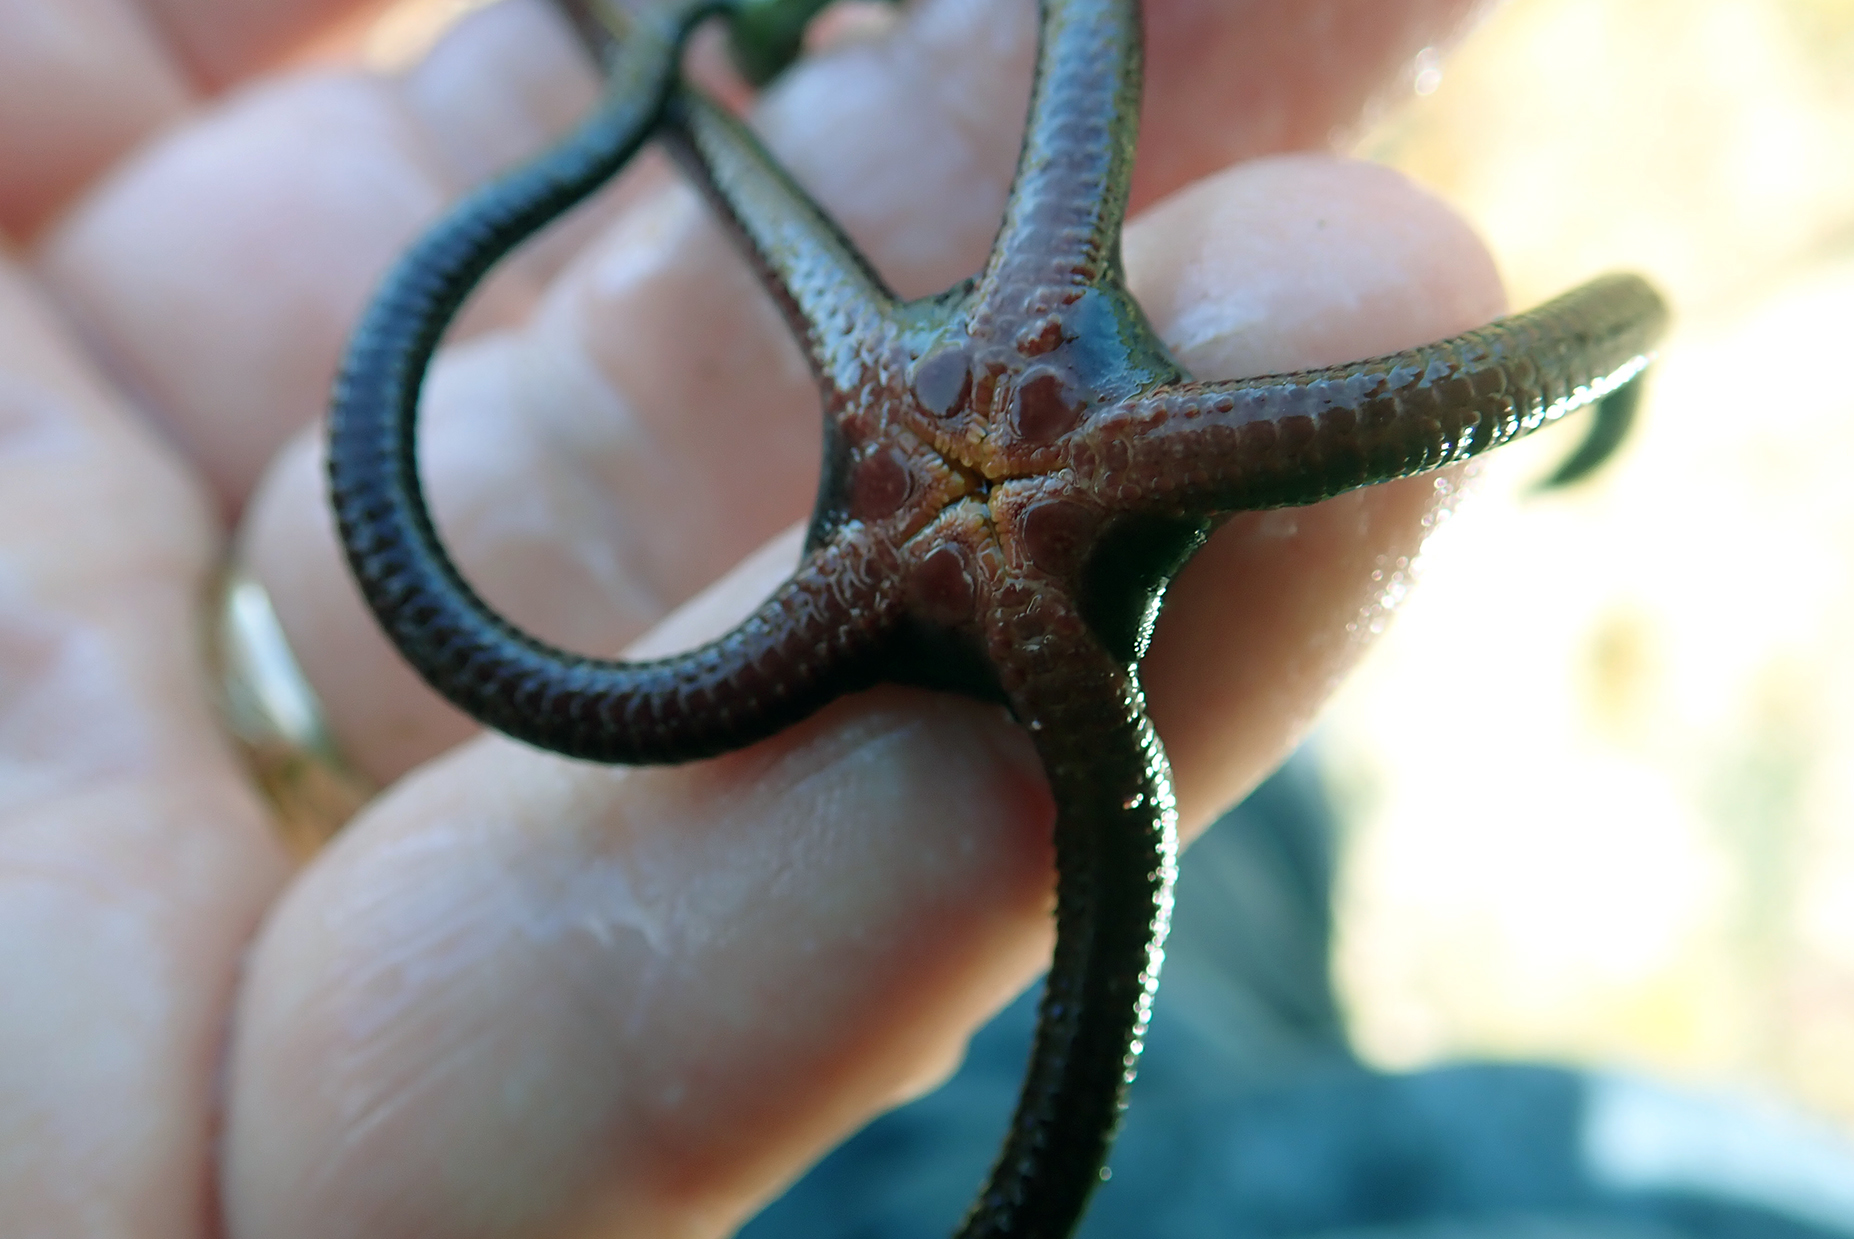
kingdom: Animalia
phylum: Echinodermata
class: Ophiuroidea
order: Ophiacanthida
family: Ophiodermatidae
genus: Ophiopsammus
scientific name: Ophiopsammus maculata
